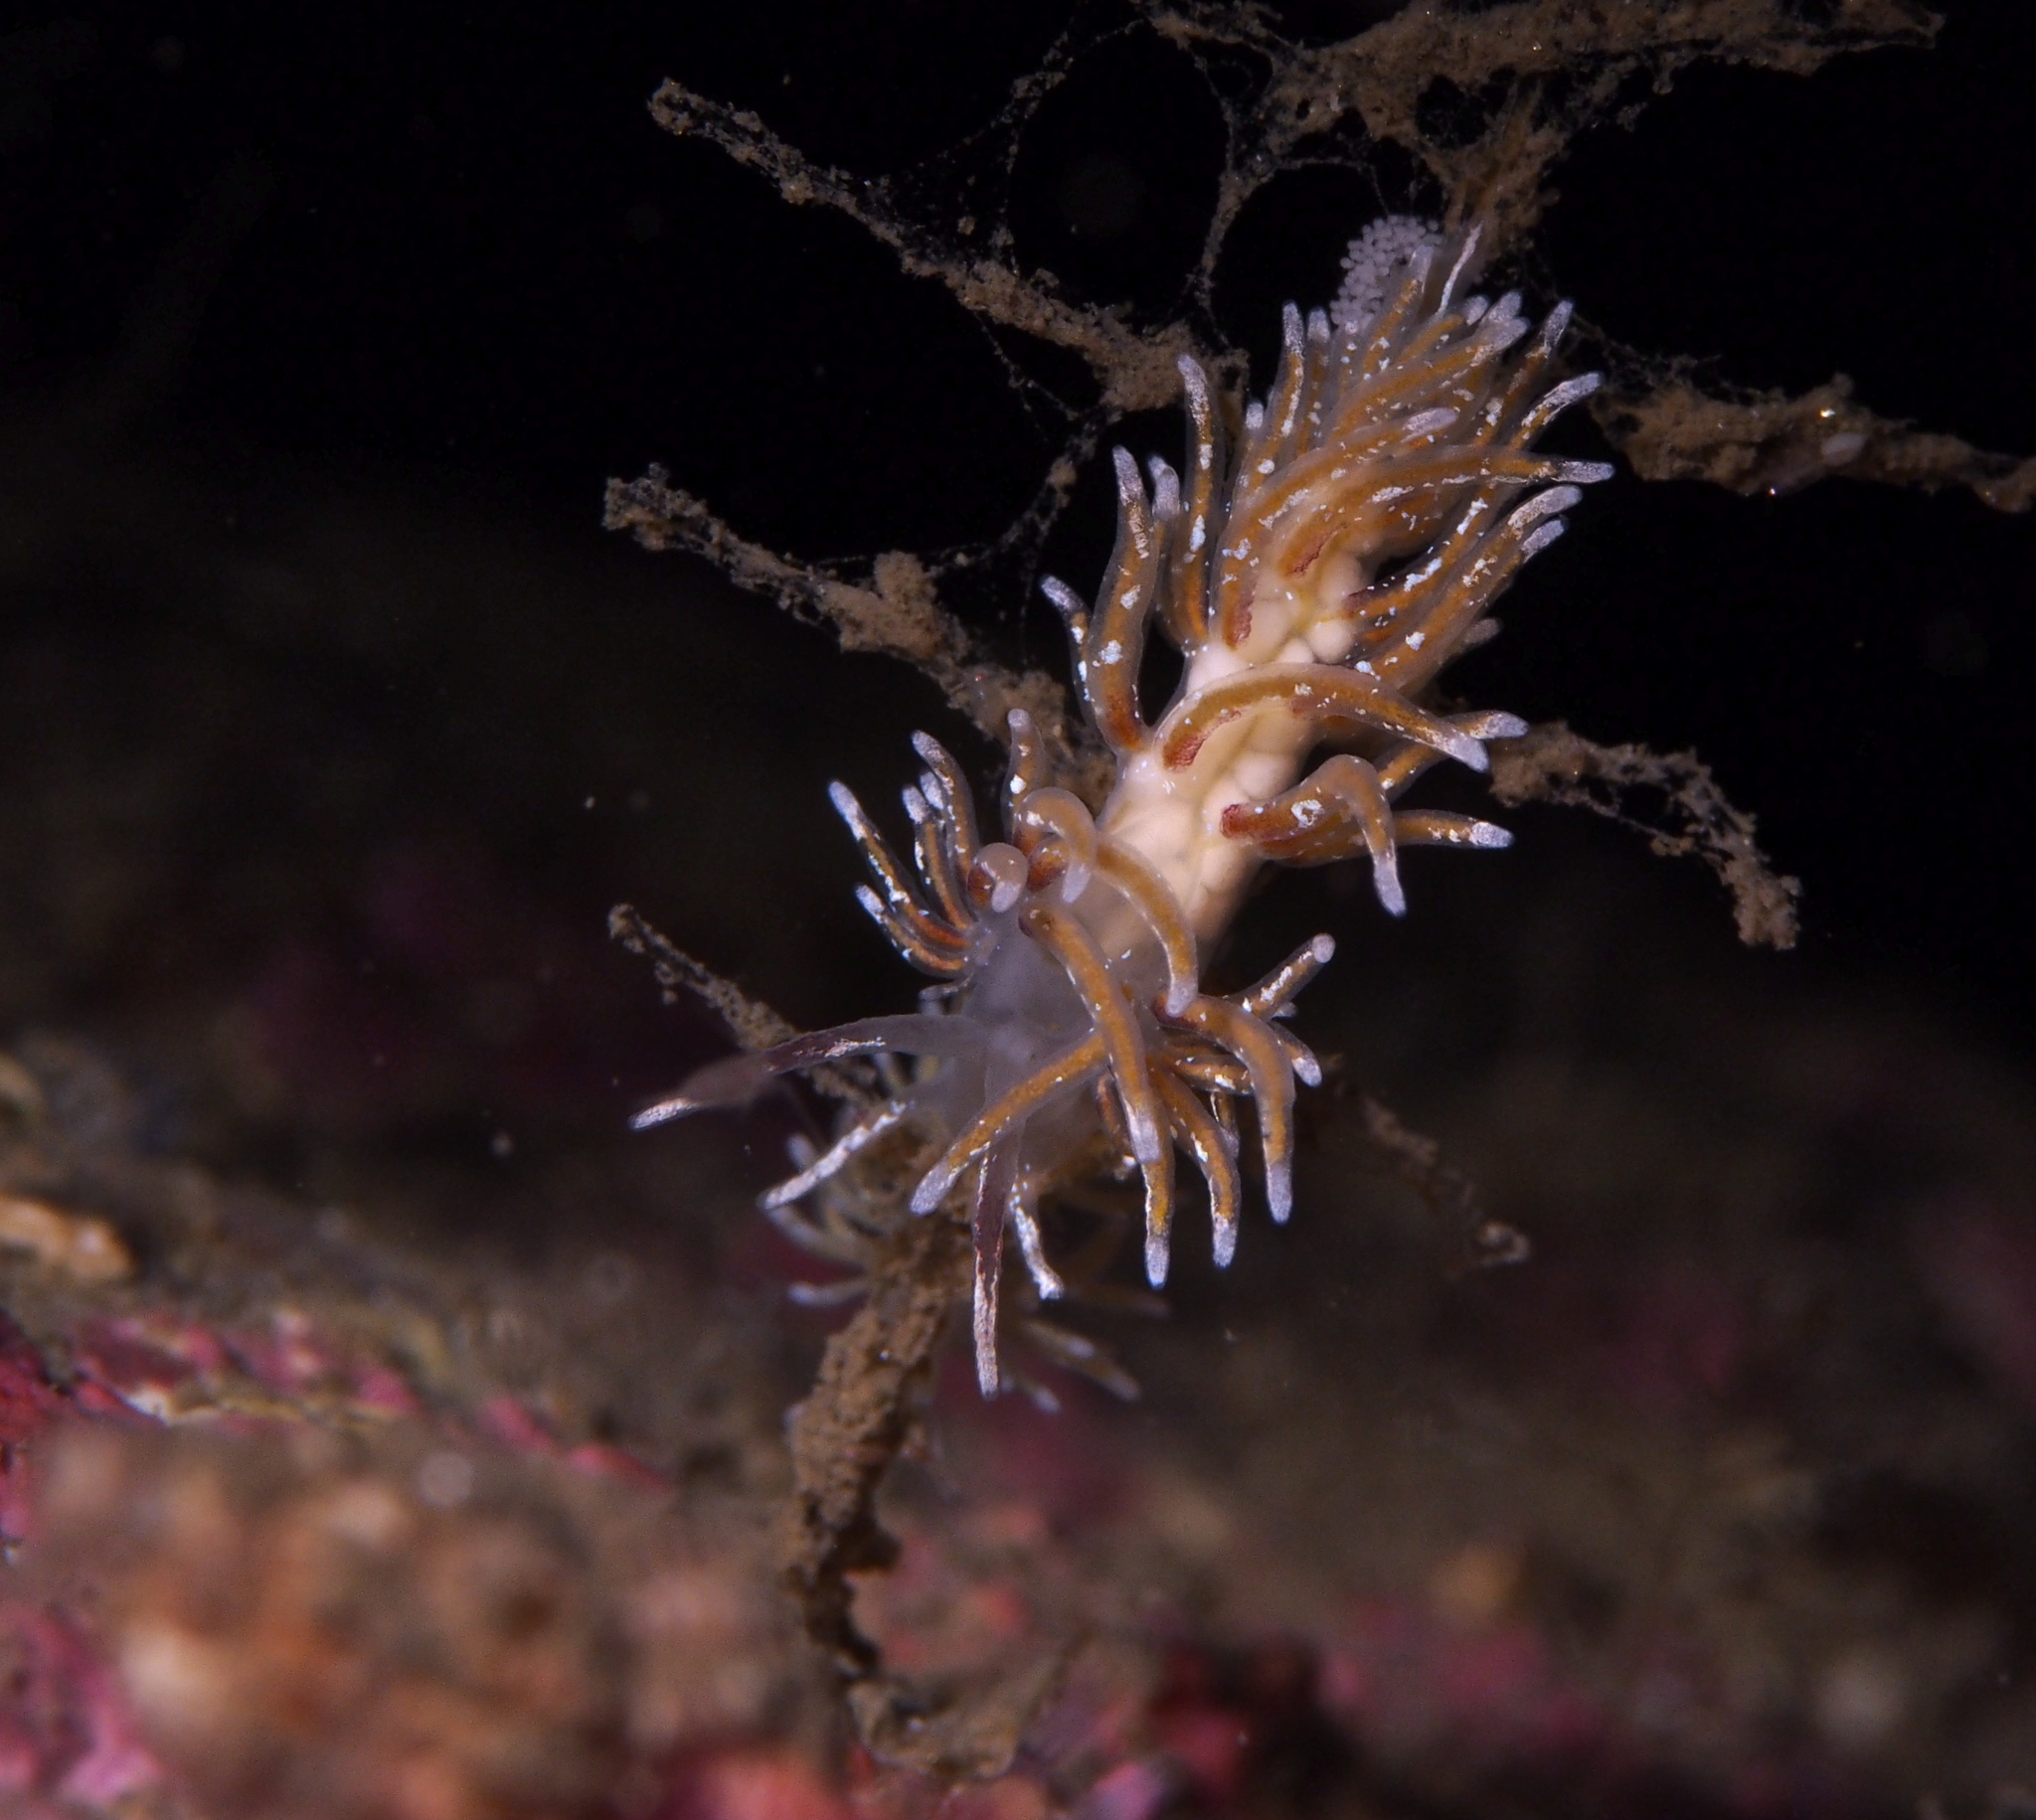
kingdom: Animalia
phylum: Mollusca
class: Gastropoda
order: Nudibranchia
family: Trinchesiidae
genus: Rubramoena
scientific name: Rubramoena rubescens
